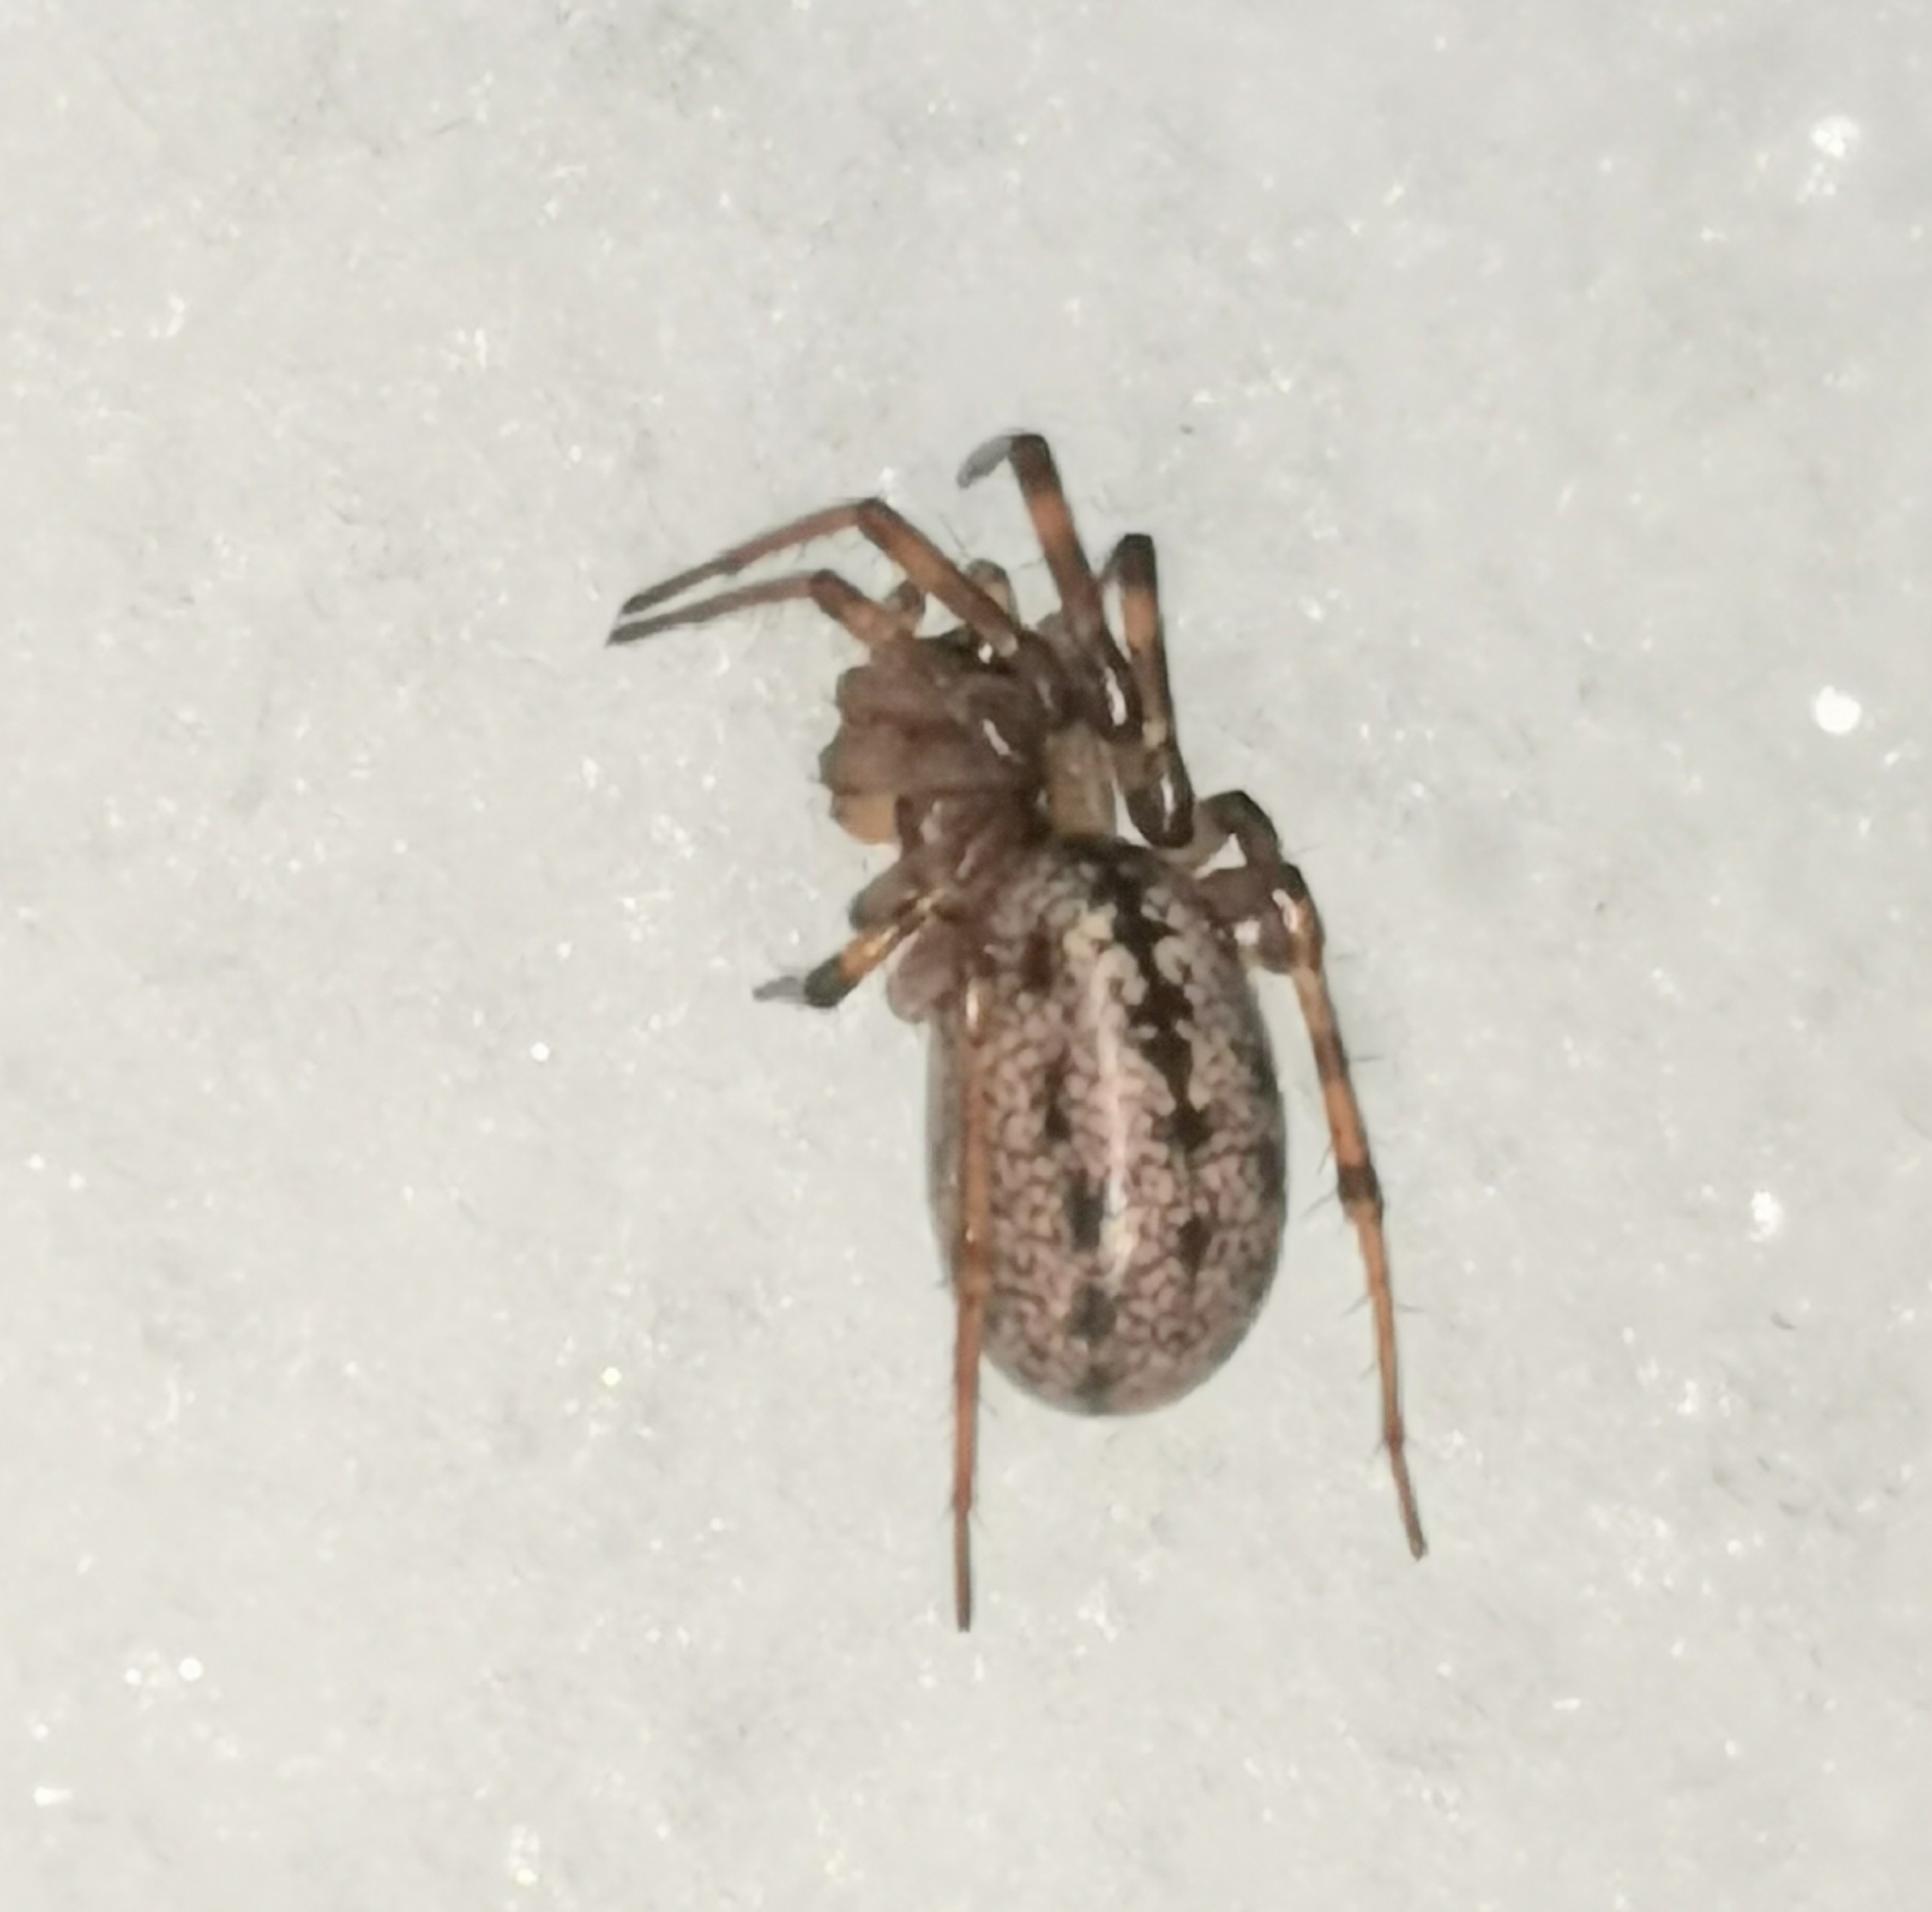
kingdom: Animalia
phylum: Arthropoda
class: Arachnida
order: Araneae
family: Linyphiidae
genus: Stemonyphantes
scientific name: Stemonyphantes lineatus
